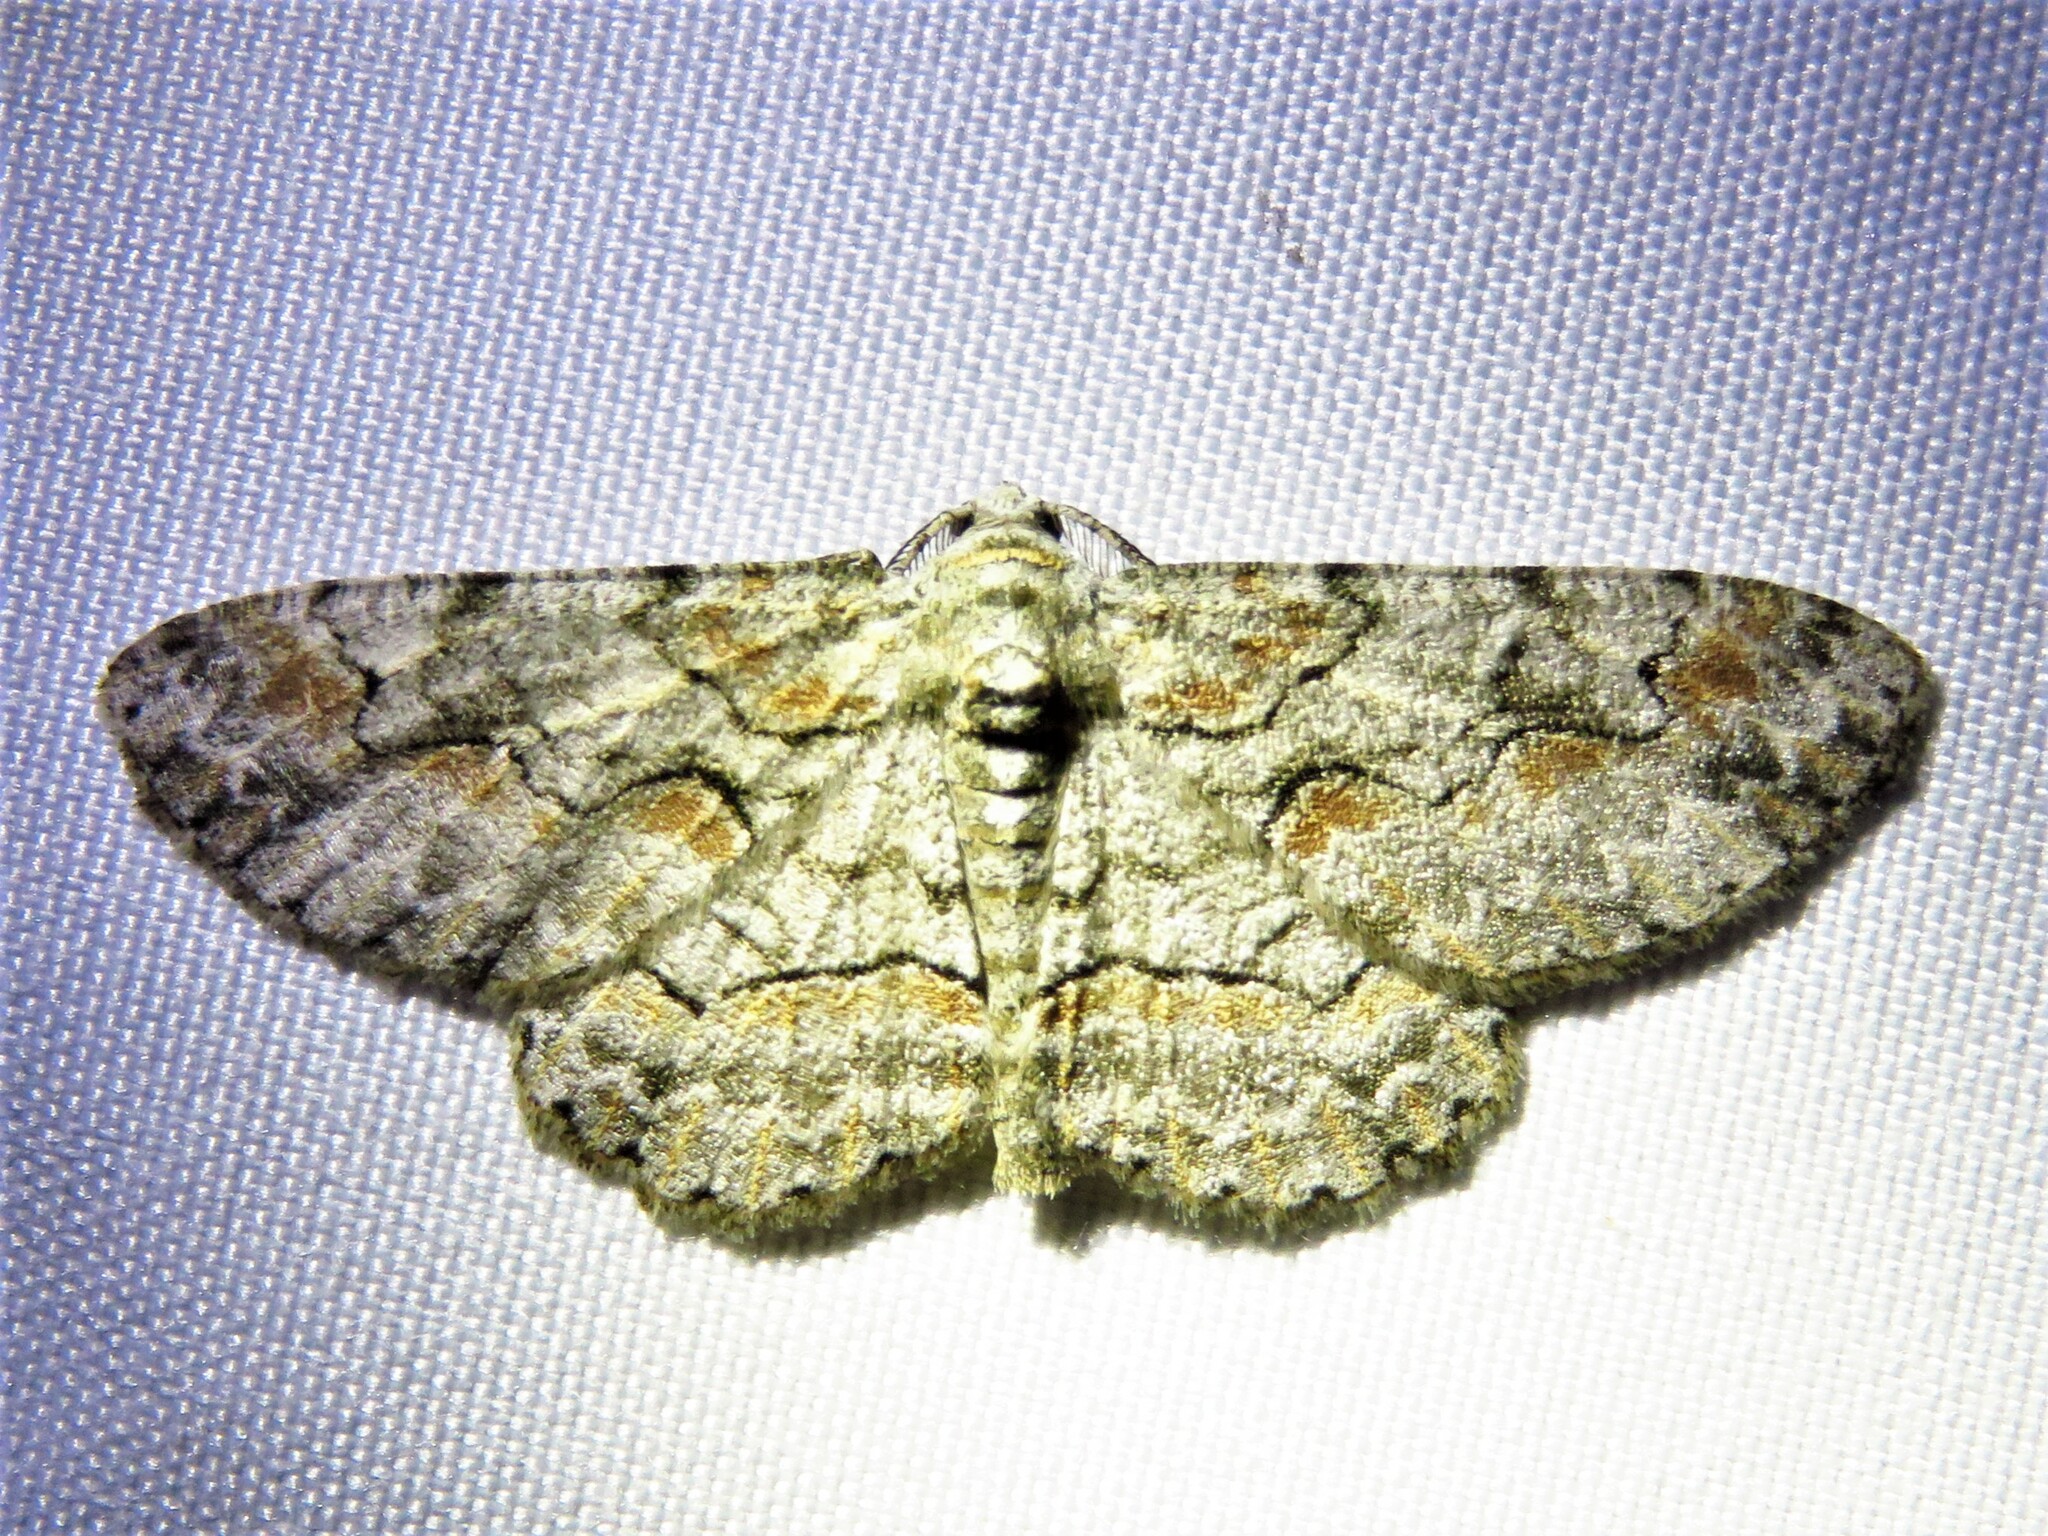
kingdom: Animalia
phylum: Arthropoda
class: Insecta
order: Lepidoptera
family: Geometridae
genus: Iridopsis
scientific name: Iridopsis defectaria
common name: Brown-shaded gray
